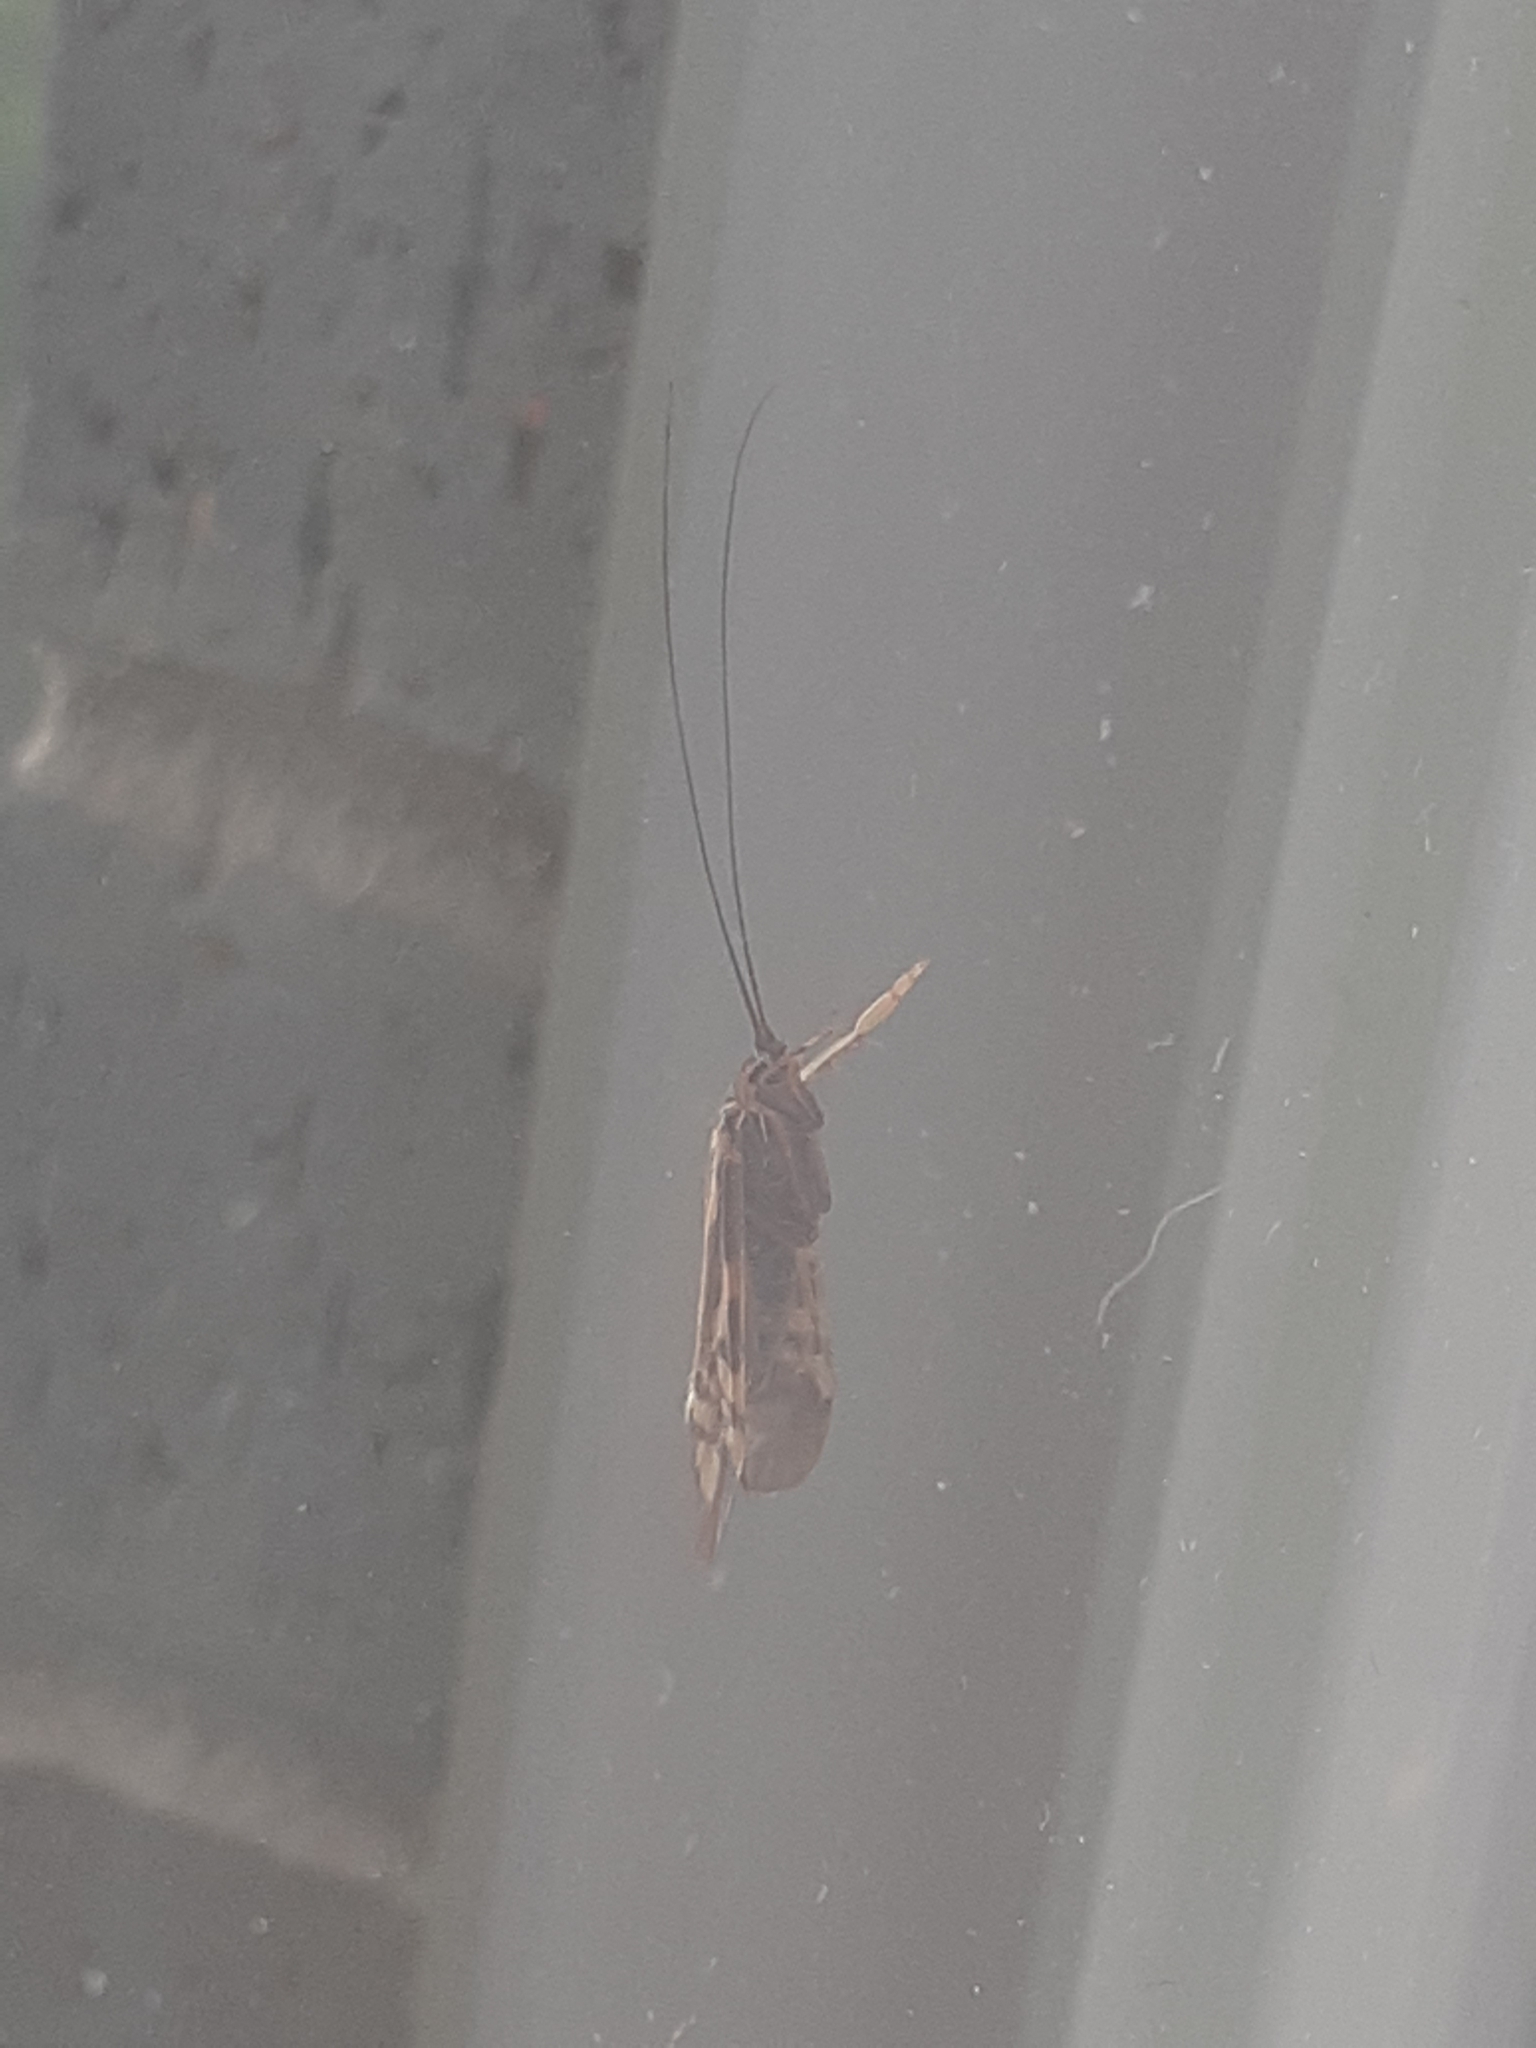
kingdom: Animalia
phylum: Arthropoda
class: Insecta
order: Trichoptera
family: Hydropsychidae
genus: Macrostemum
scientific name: Macrostemum zebratum
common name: Zebra caddisfly
